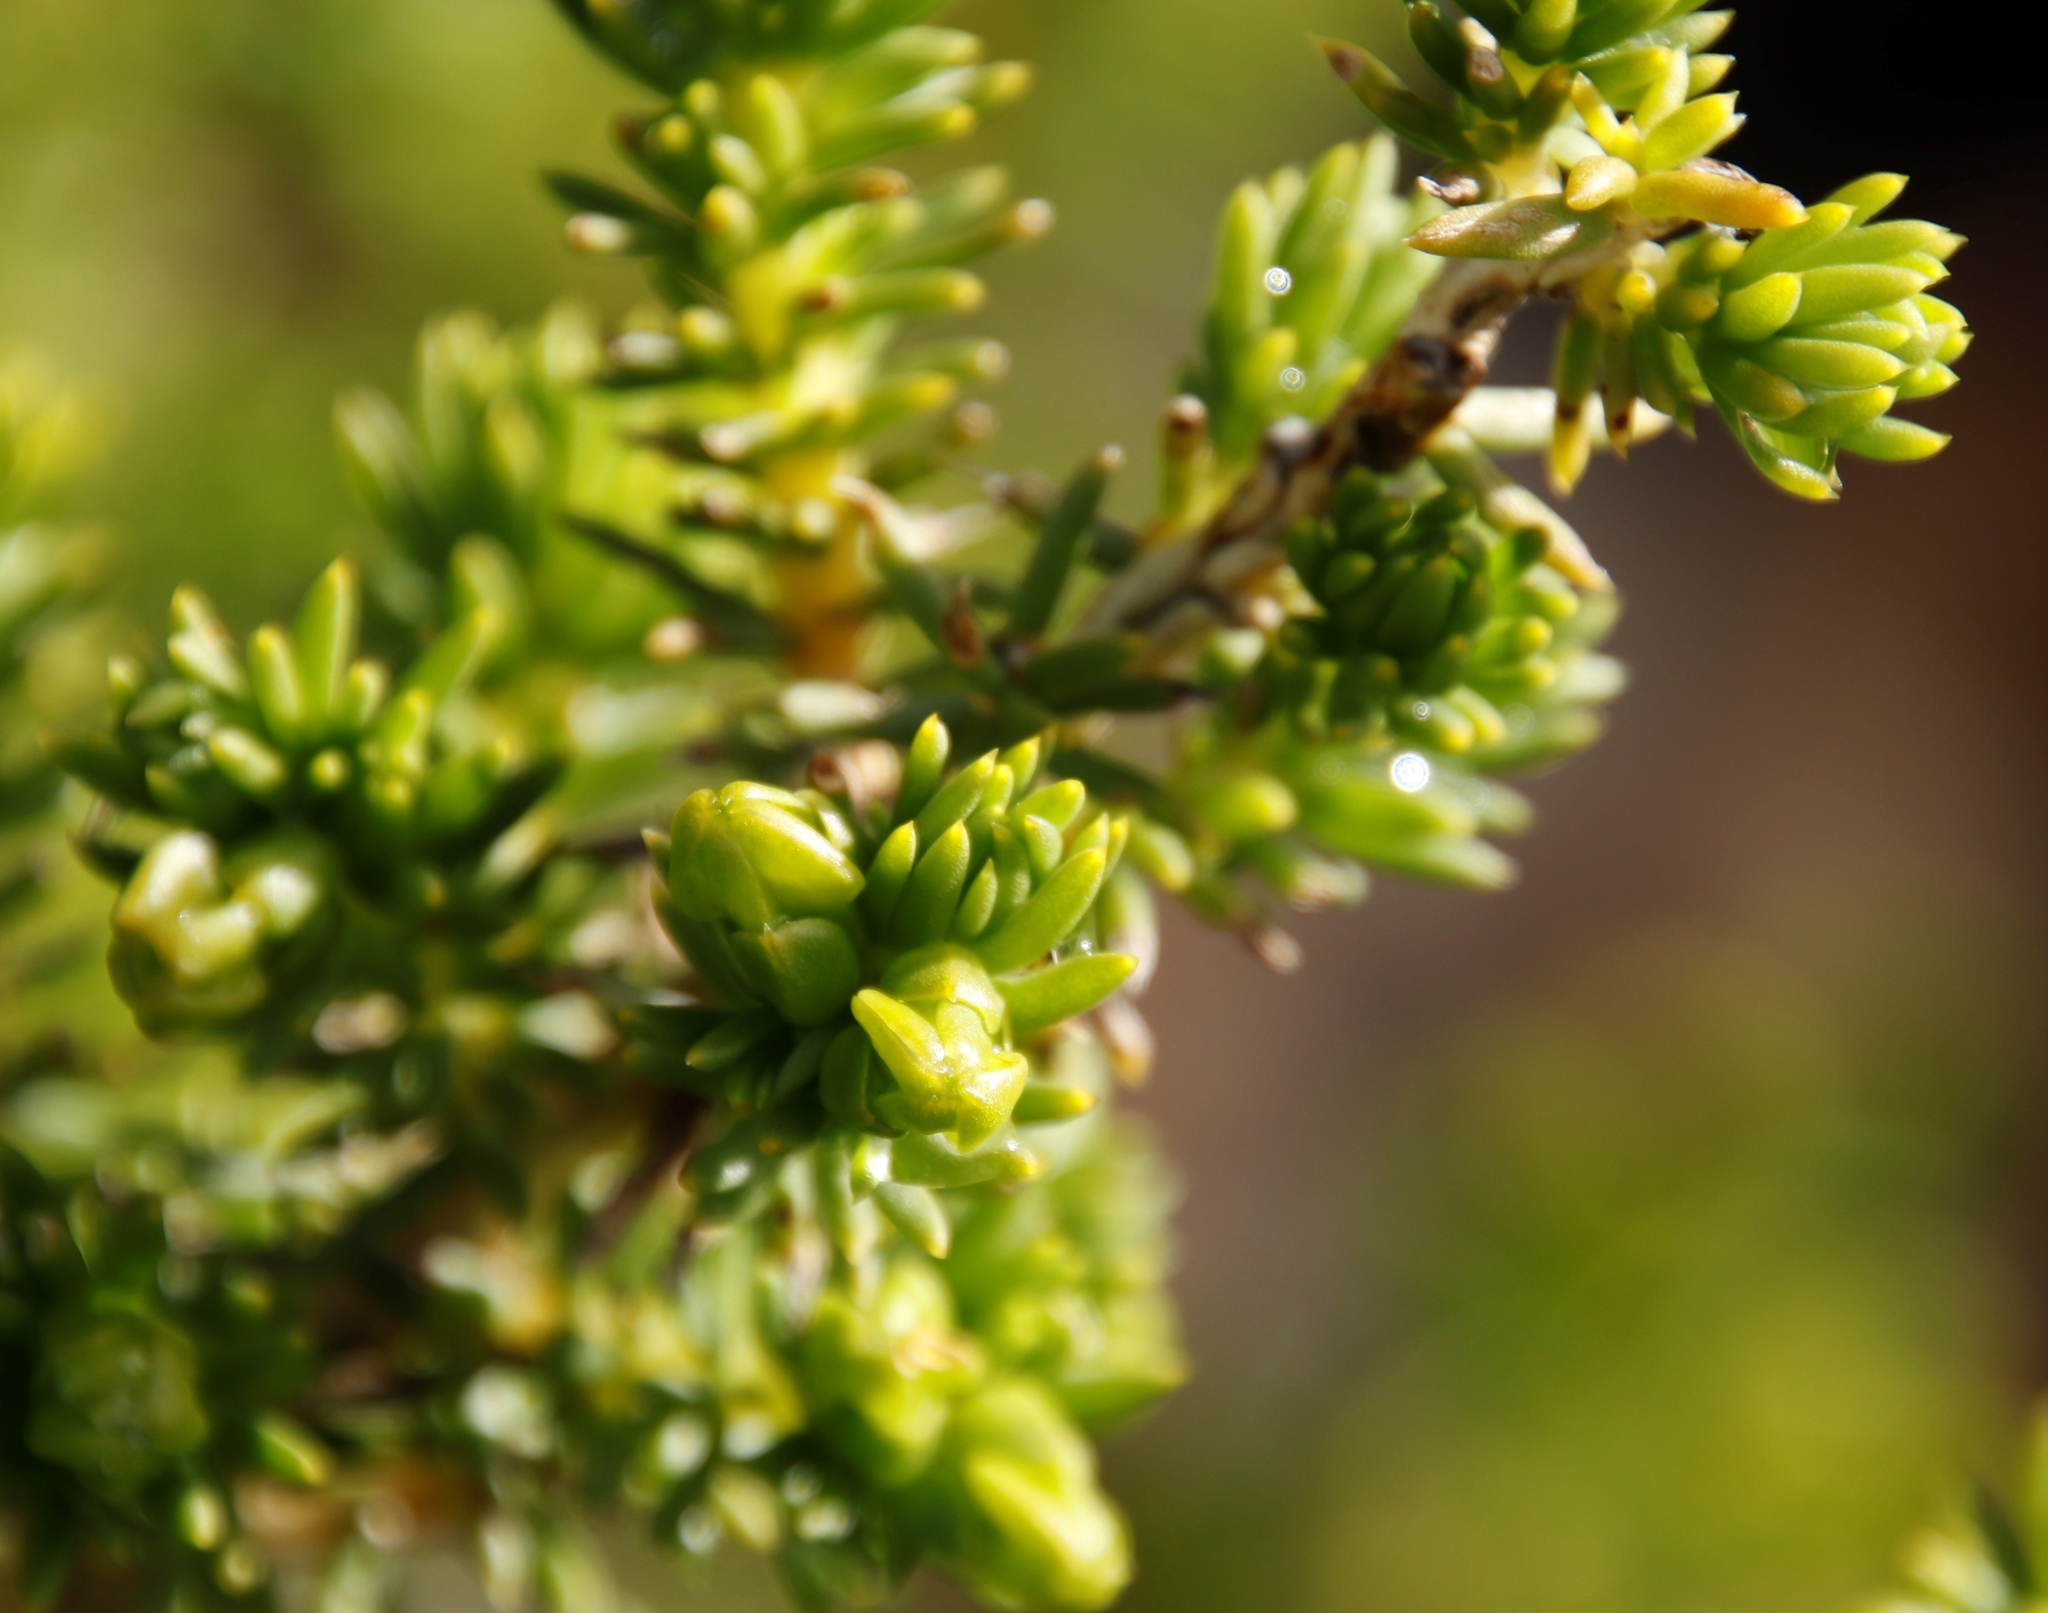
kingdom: Plantae
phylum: Tracheophyta
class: Magnoliopsida
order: Fabales
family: Fabaceae
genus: Aspalathus
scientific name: Aspalathus capensis
